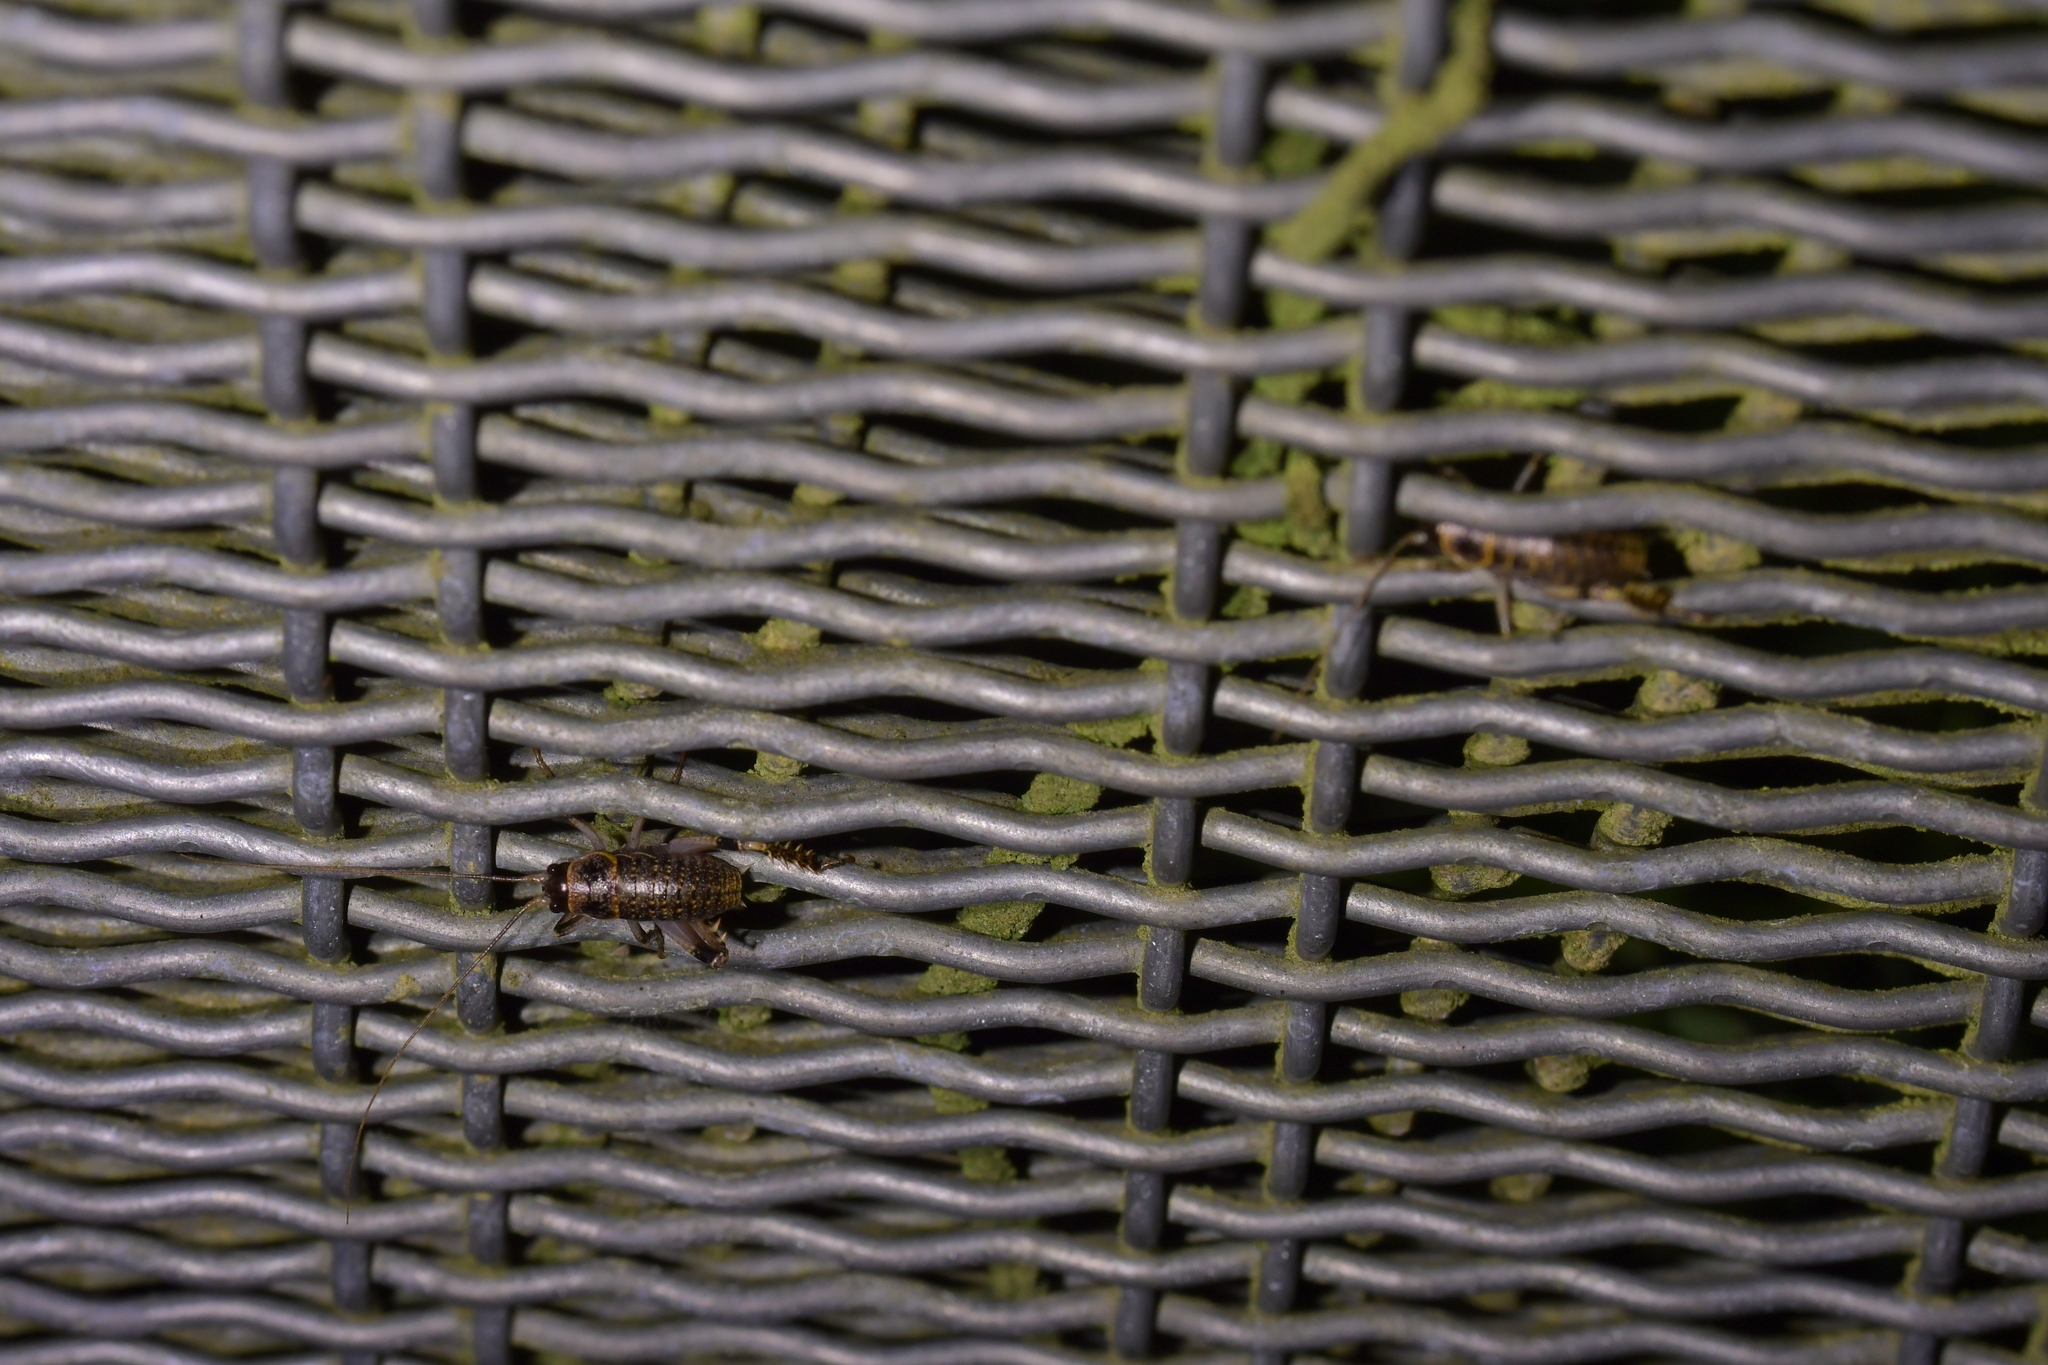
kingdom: Animalia
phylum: Arthropoda
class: Insecta
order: Orthoptera
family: Anostostomatidae
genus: Deinacrida
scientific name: Deinacrida rugosa
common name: Stephens island weta
